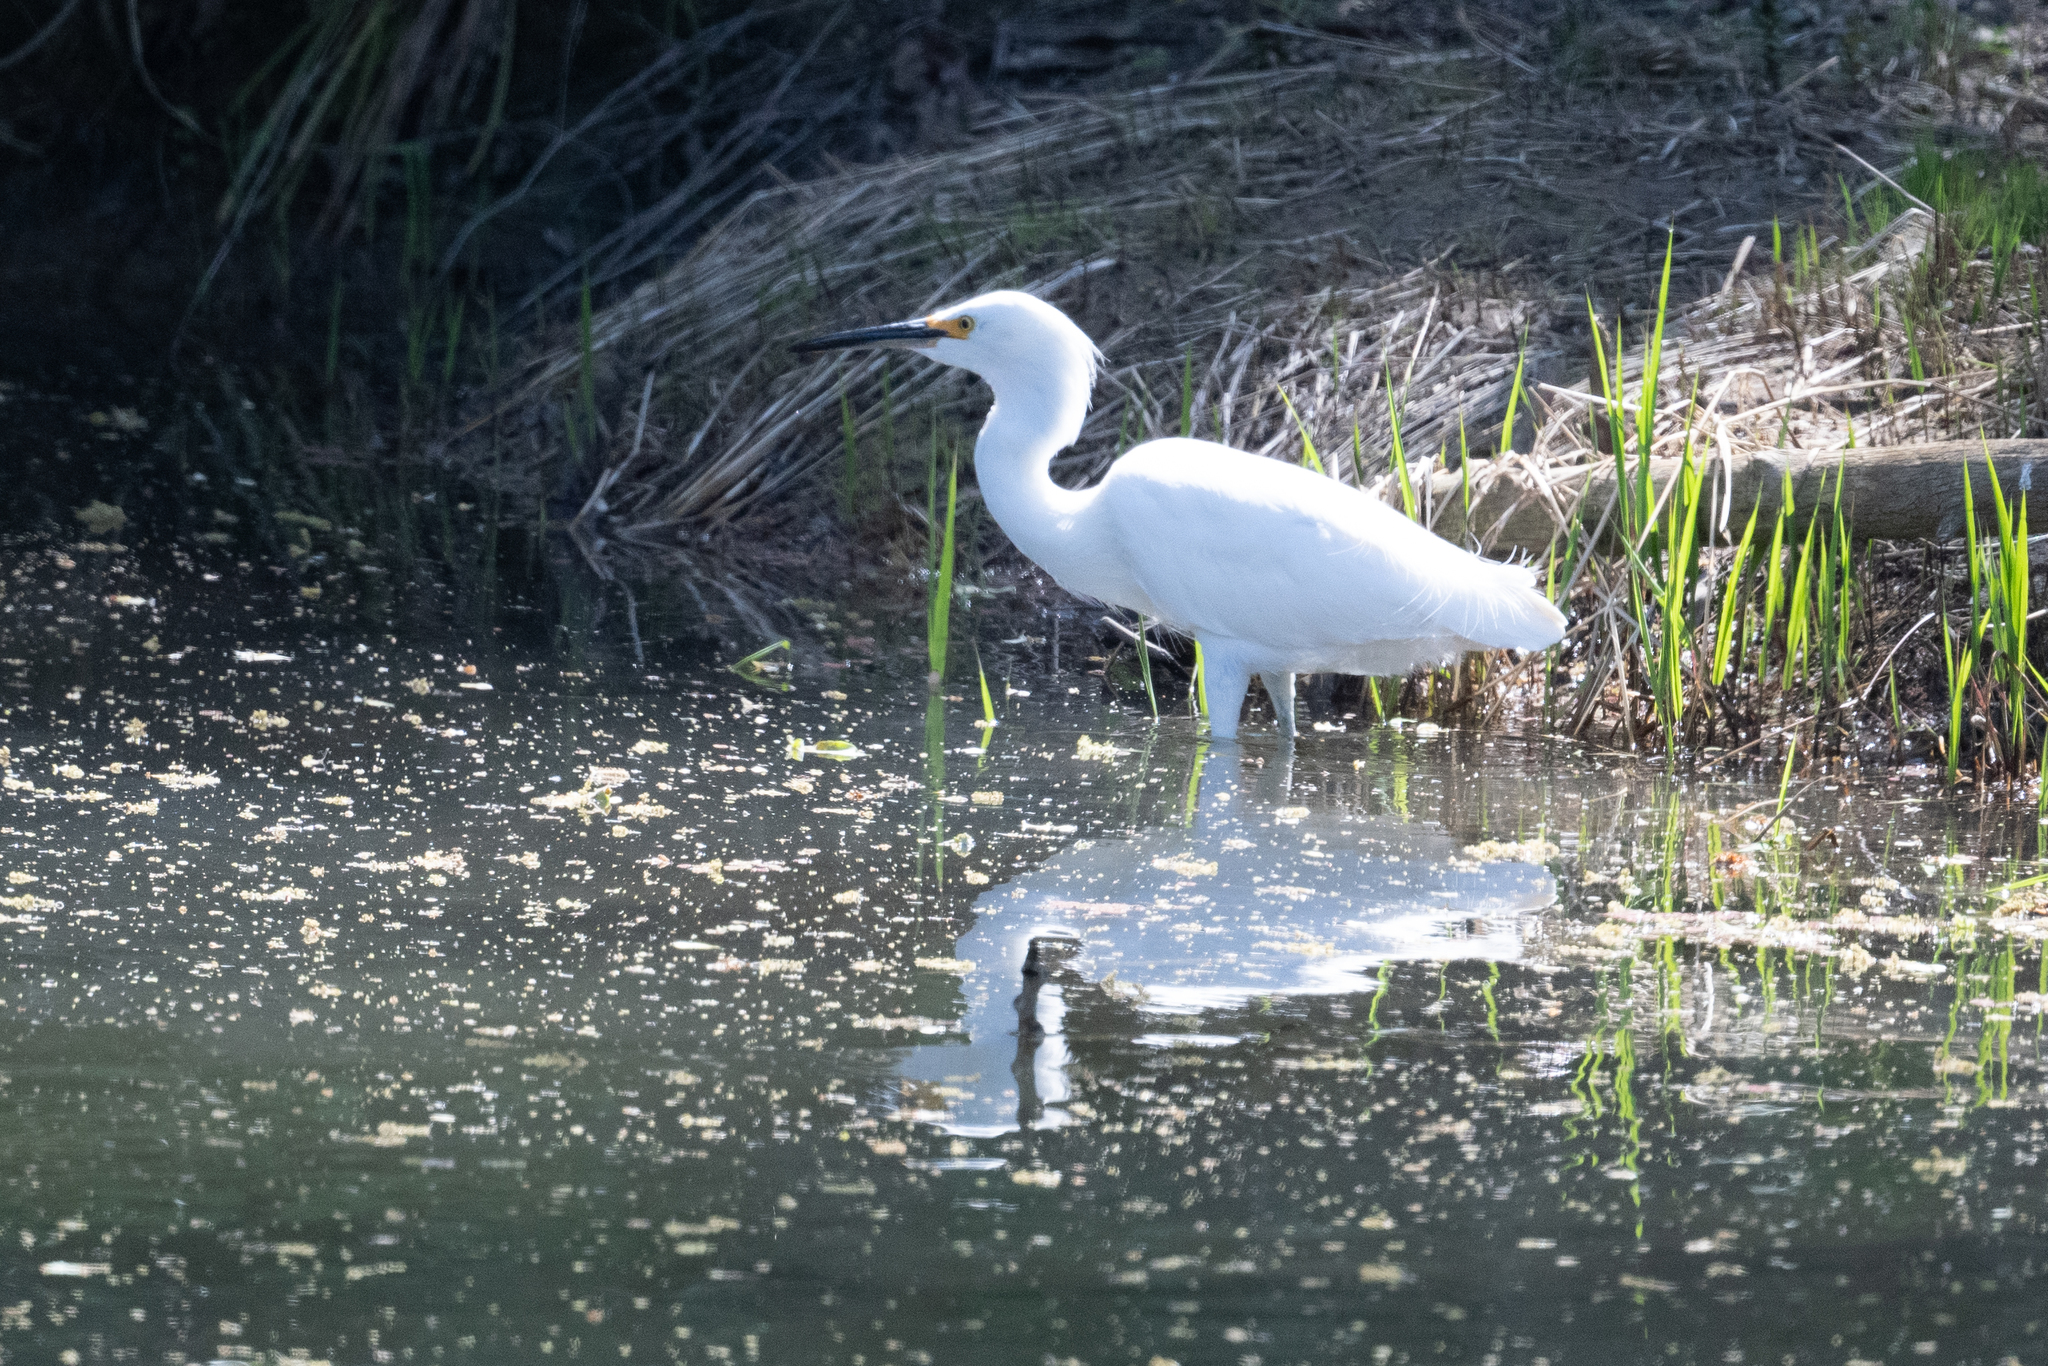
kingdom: Animalia
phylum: Chordata
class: Aves
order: Pelecaniformes
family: Ardeidae
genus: Egretta
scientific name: Egretta thula
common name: Snowy egret
